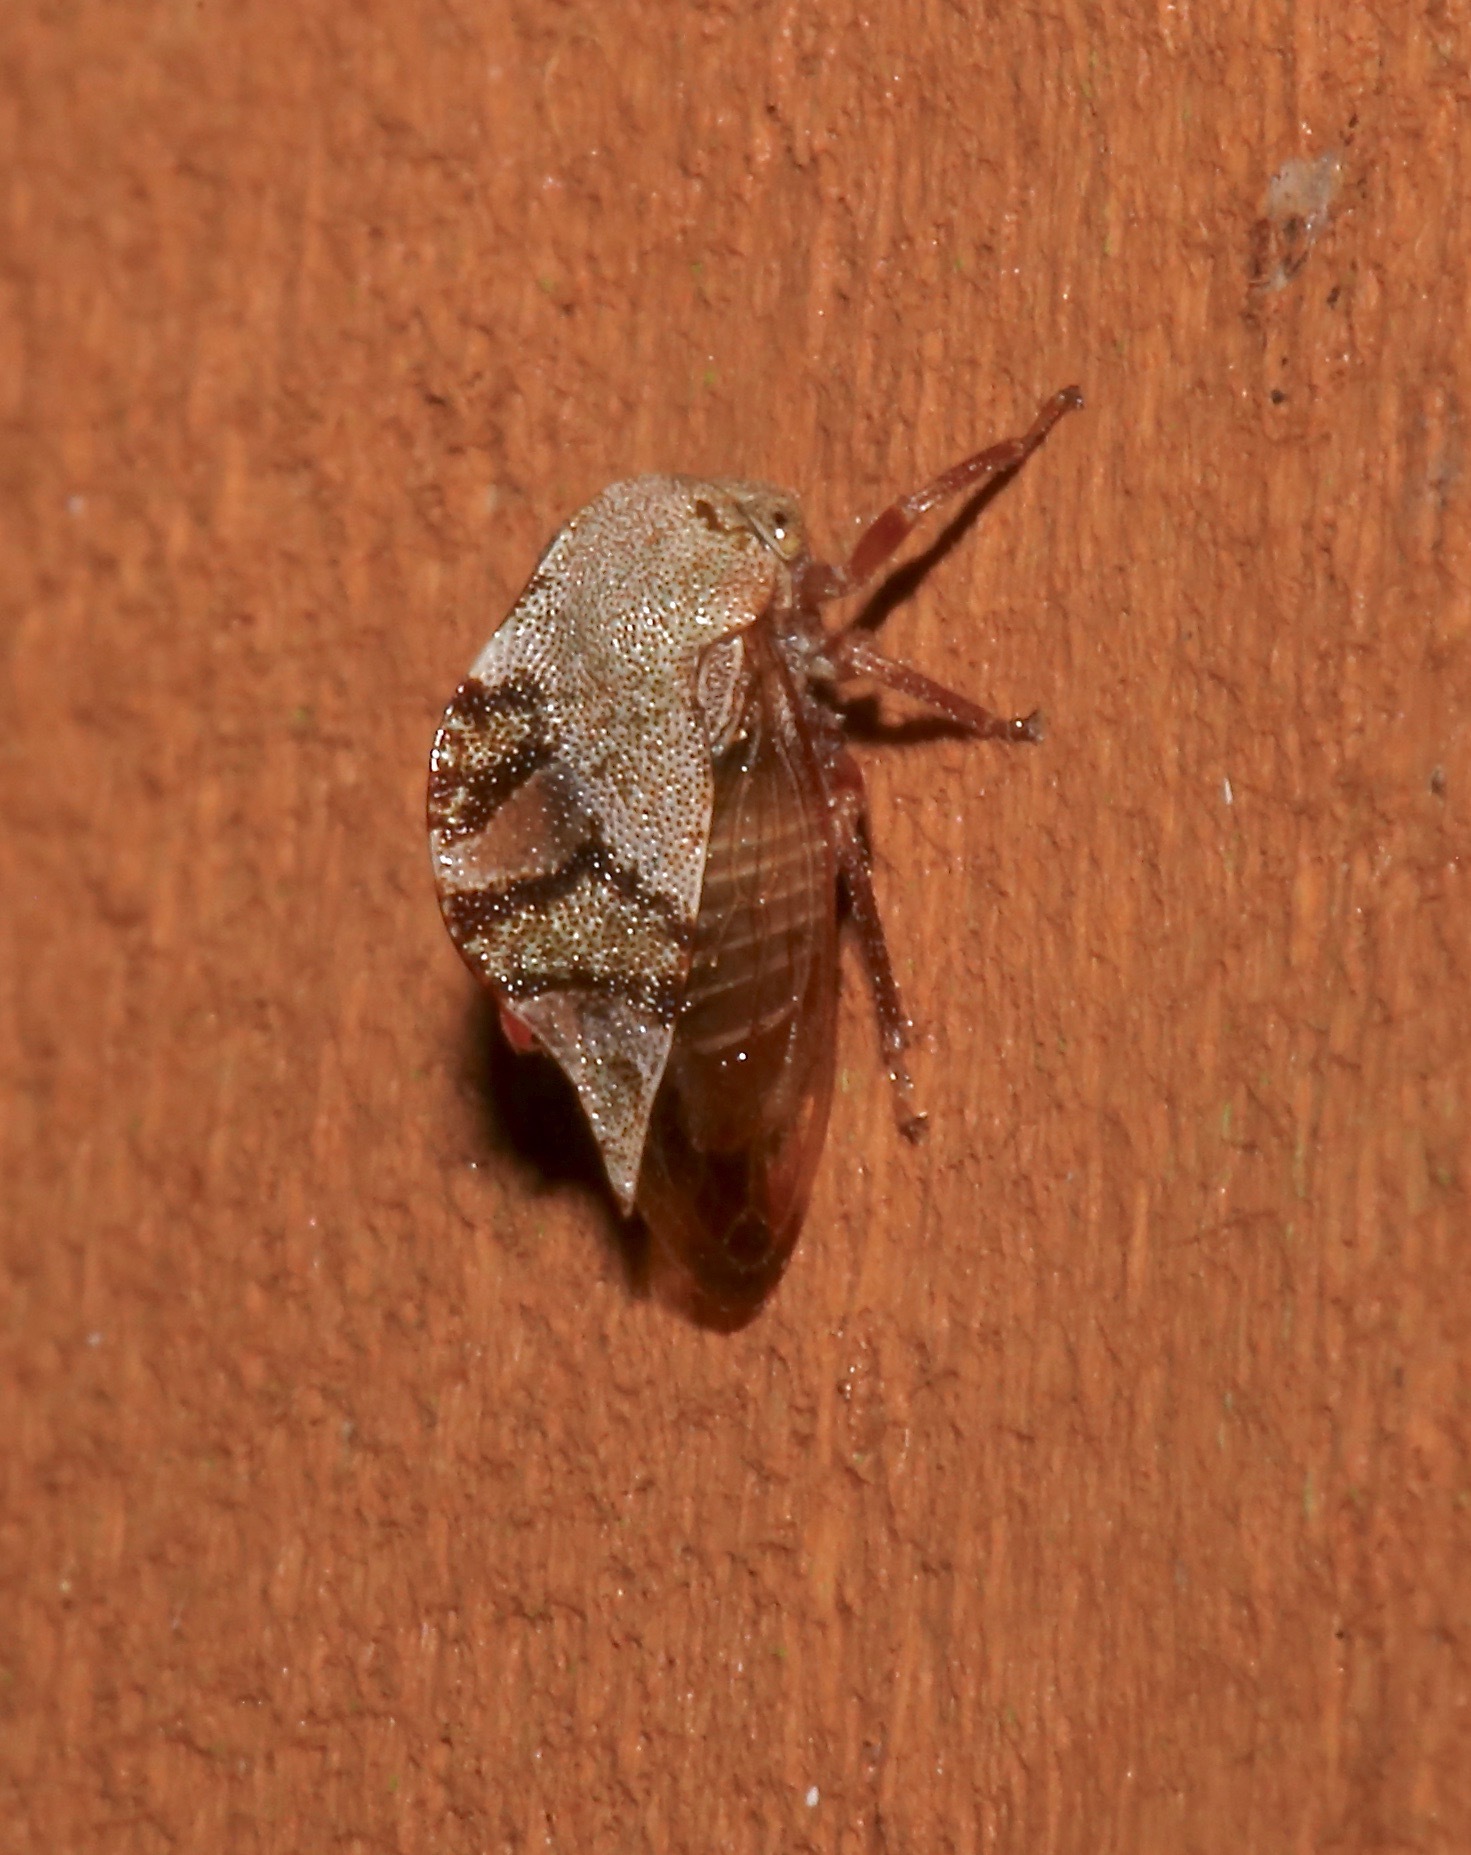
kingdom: Animalia
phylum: Arthropoda
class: Insecta
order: Hemiptera
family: Membracidae
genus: Cyrtolobus
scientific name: Cyrtolobus tuberosa
